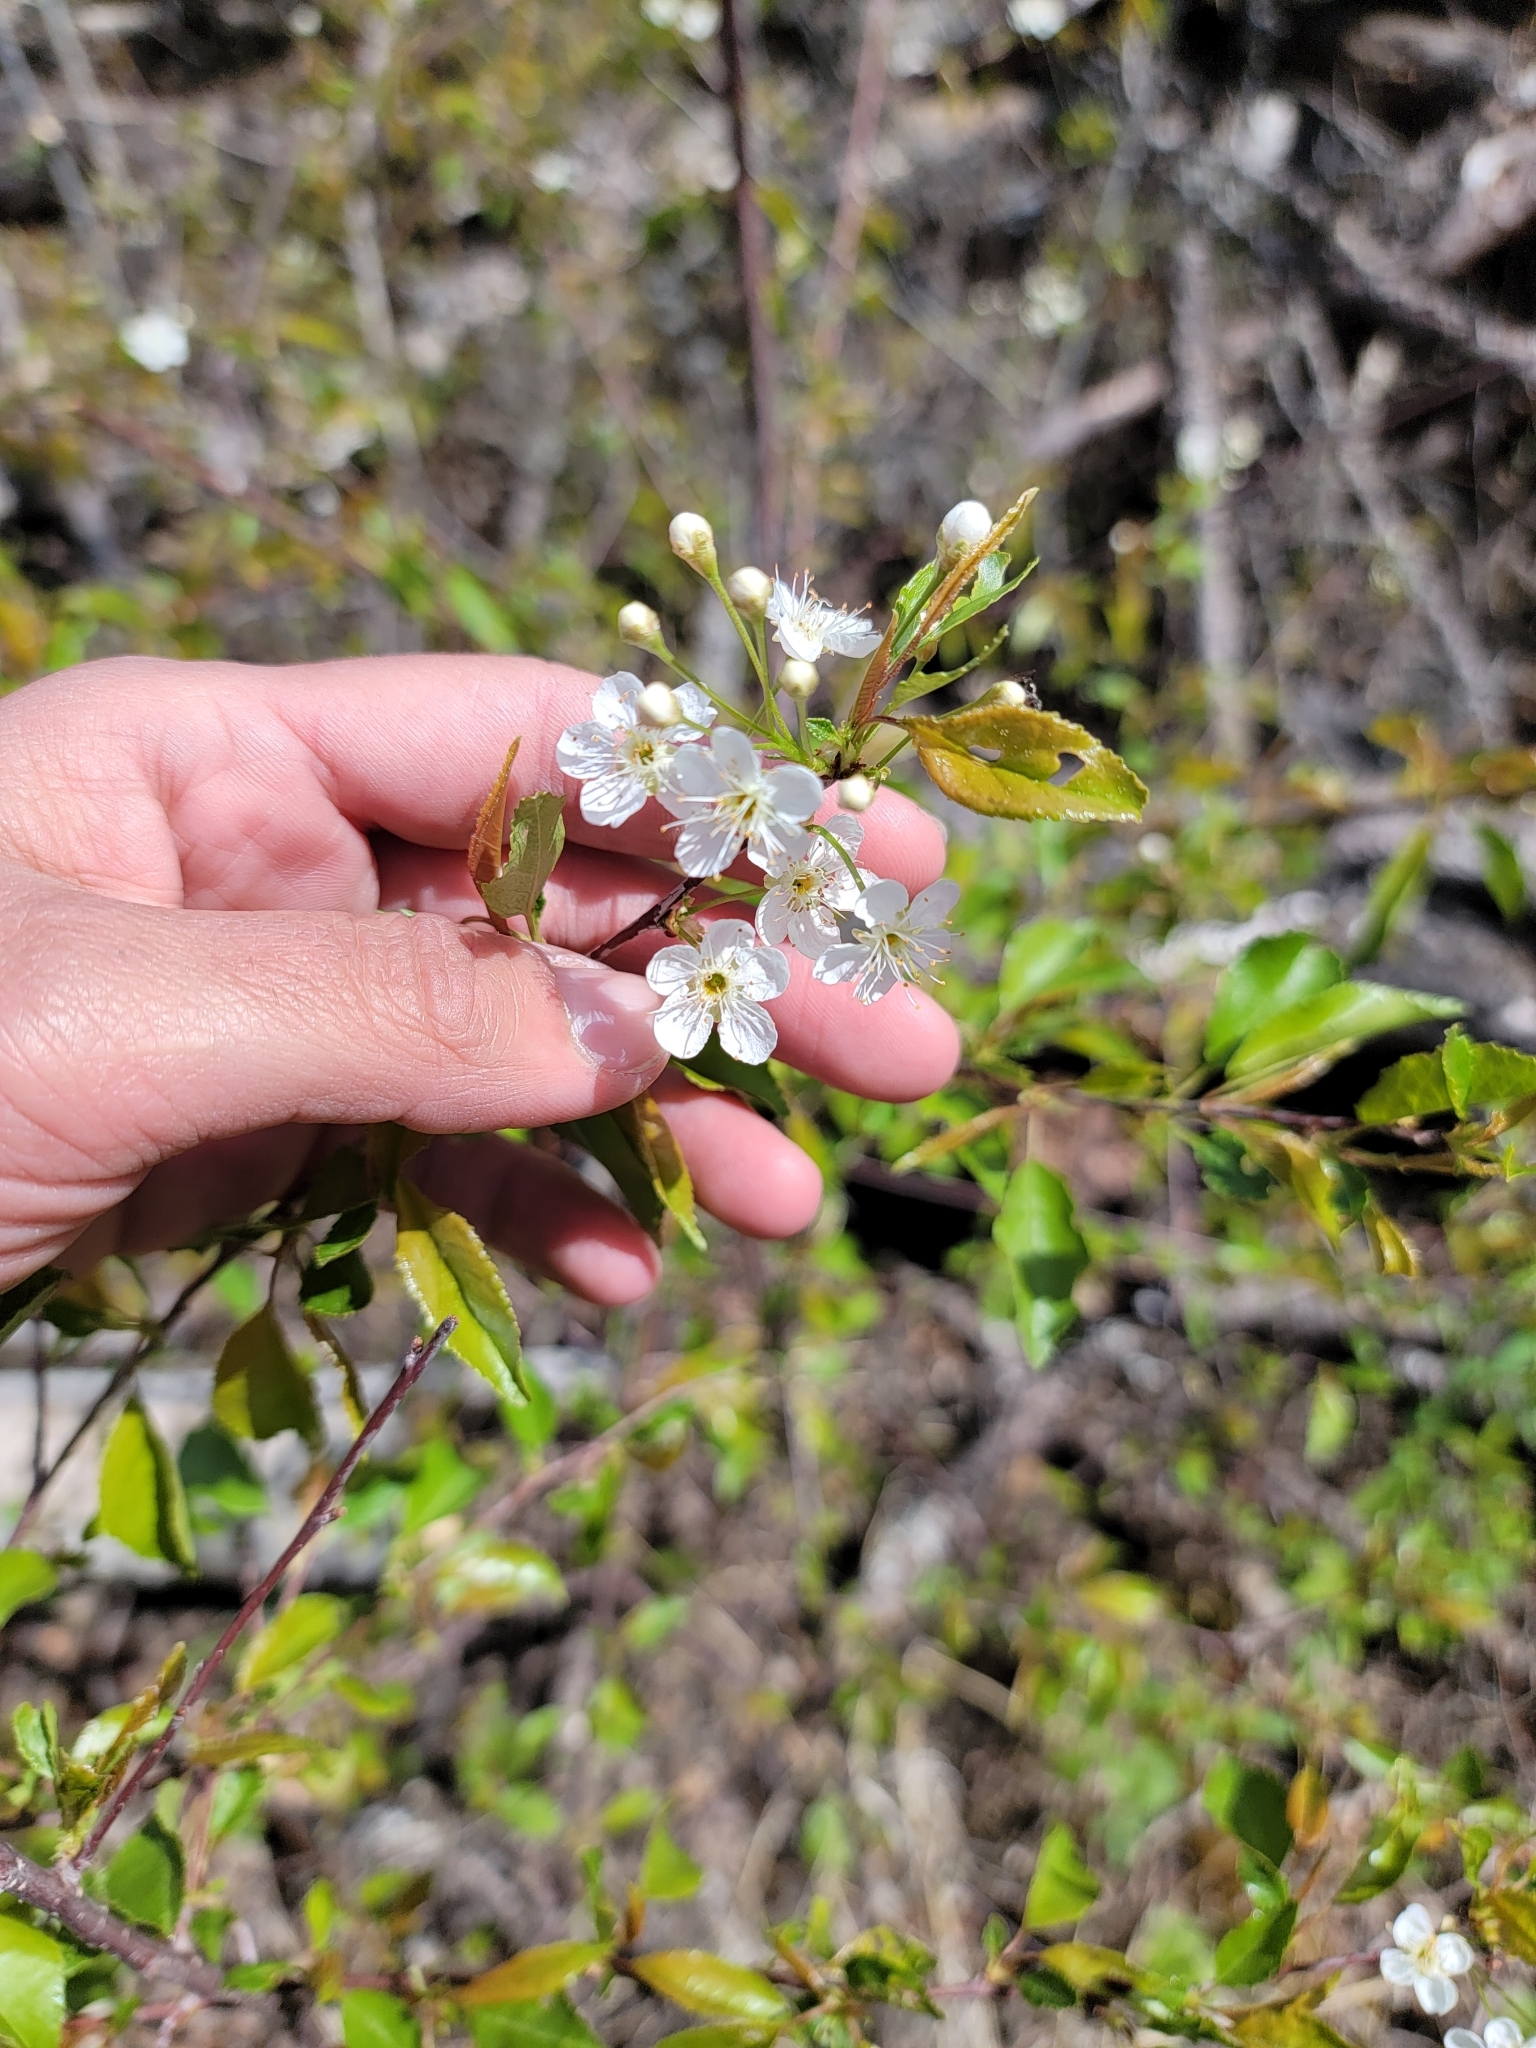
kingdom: Plantae
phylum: Tracheophyta
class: Magnoliopsida
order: Rosales
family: Rosaceae
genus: Prunus
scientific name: Prunus pensylvanica
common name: Pin cherry
